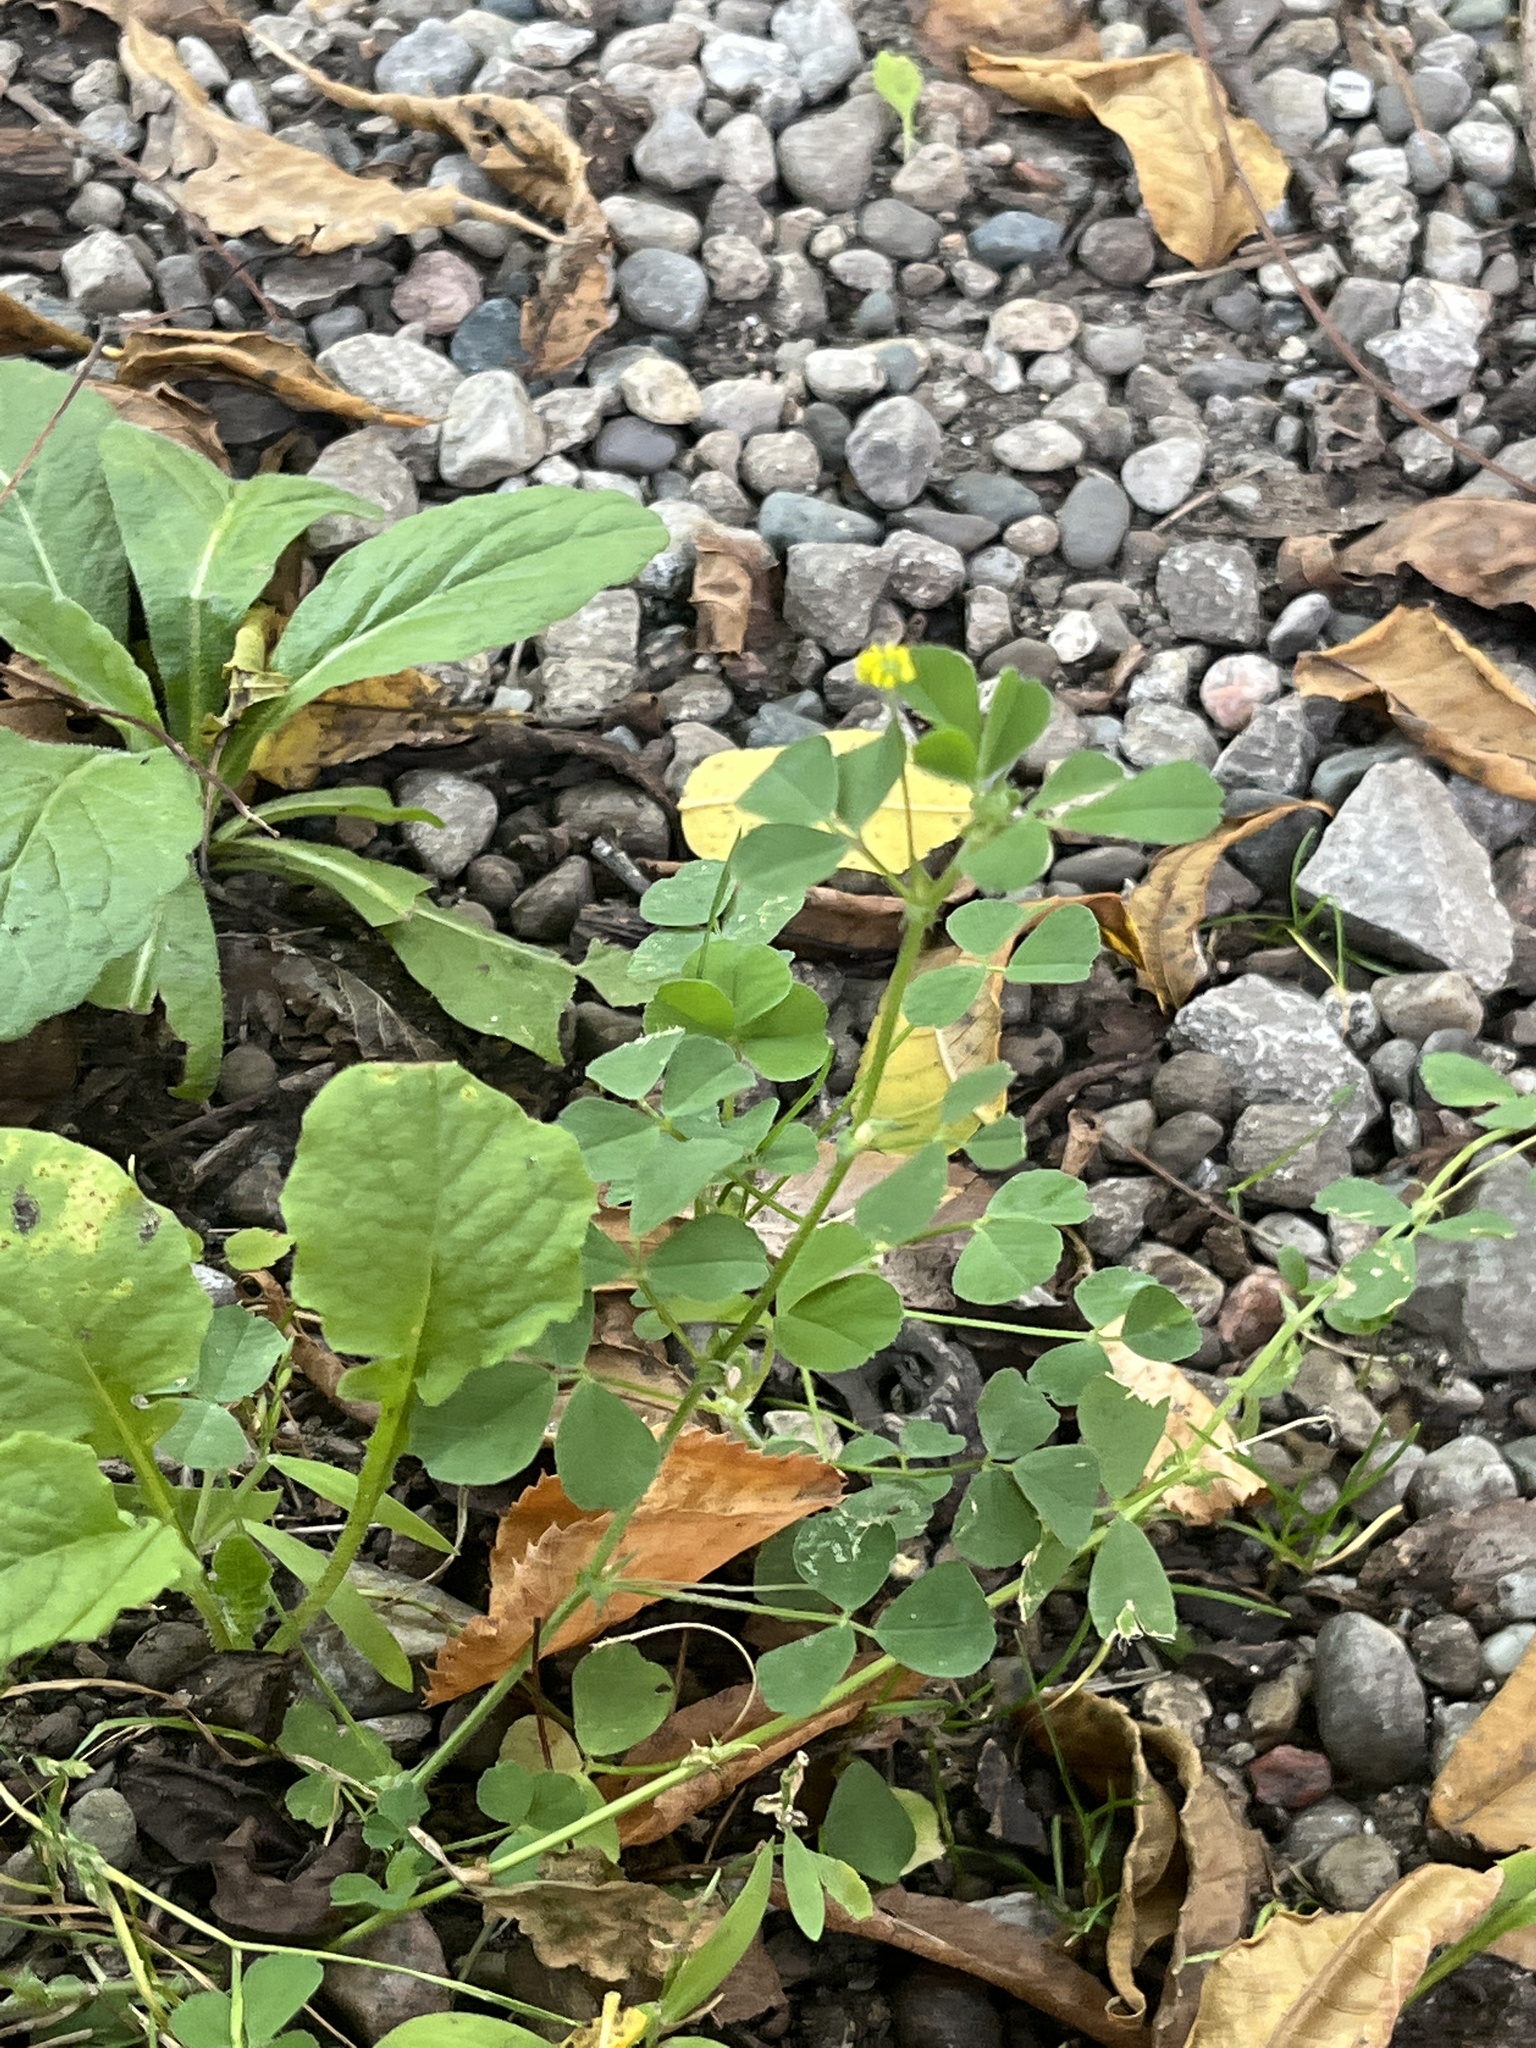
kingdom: Plantae
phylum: Tracheophyta
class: Magnoliopsida
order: Fabales
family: Fabaceae
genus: Medicago
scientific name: Medicago lupulina
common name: Black medick
